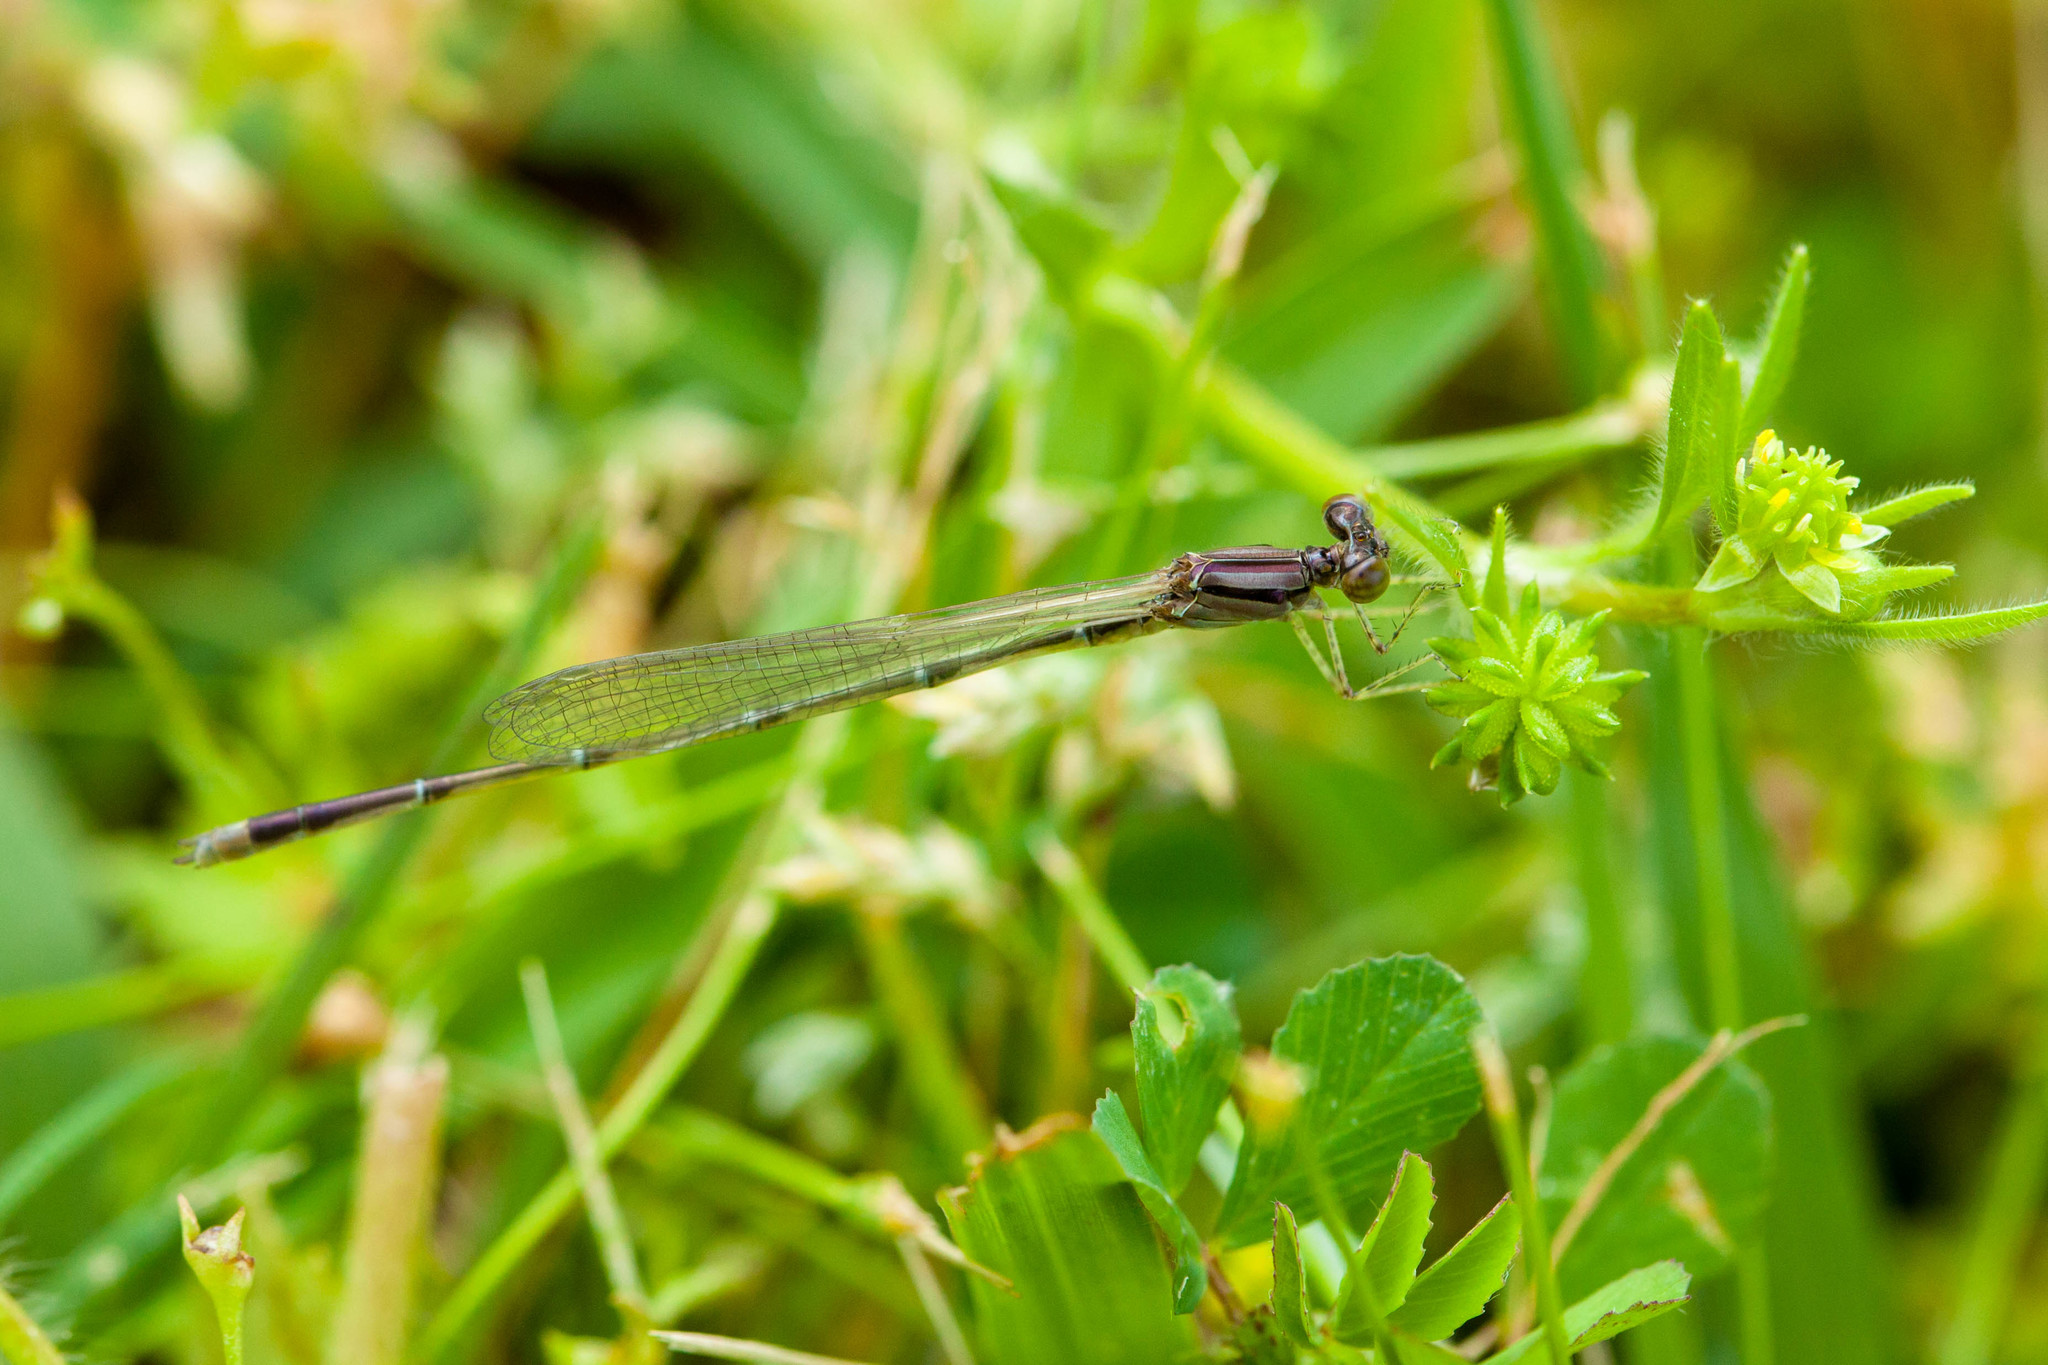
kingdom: Animalia
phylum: Arthropoda
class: Insecta
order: Odonata
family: Coenagrionidae
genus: Enallagma
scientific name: Enallagma signatum
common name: Orange bluet
